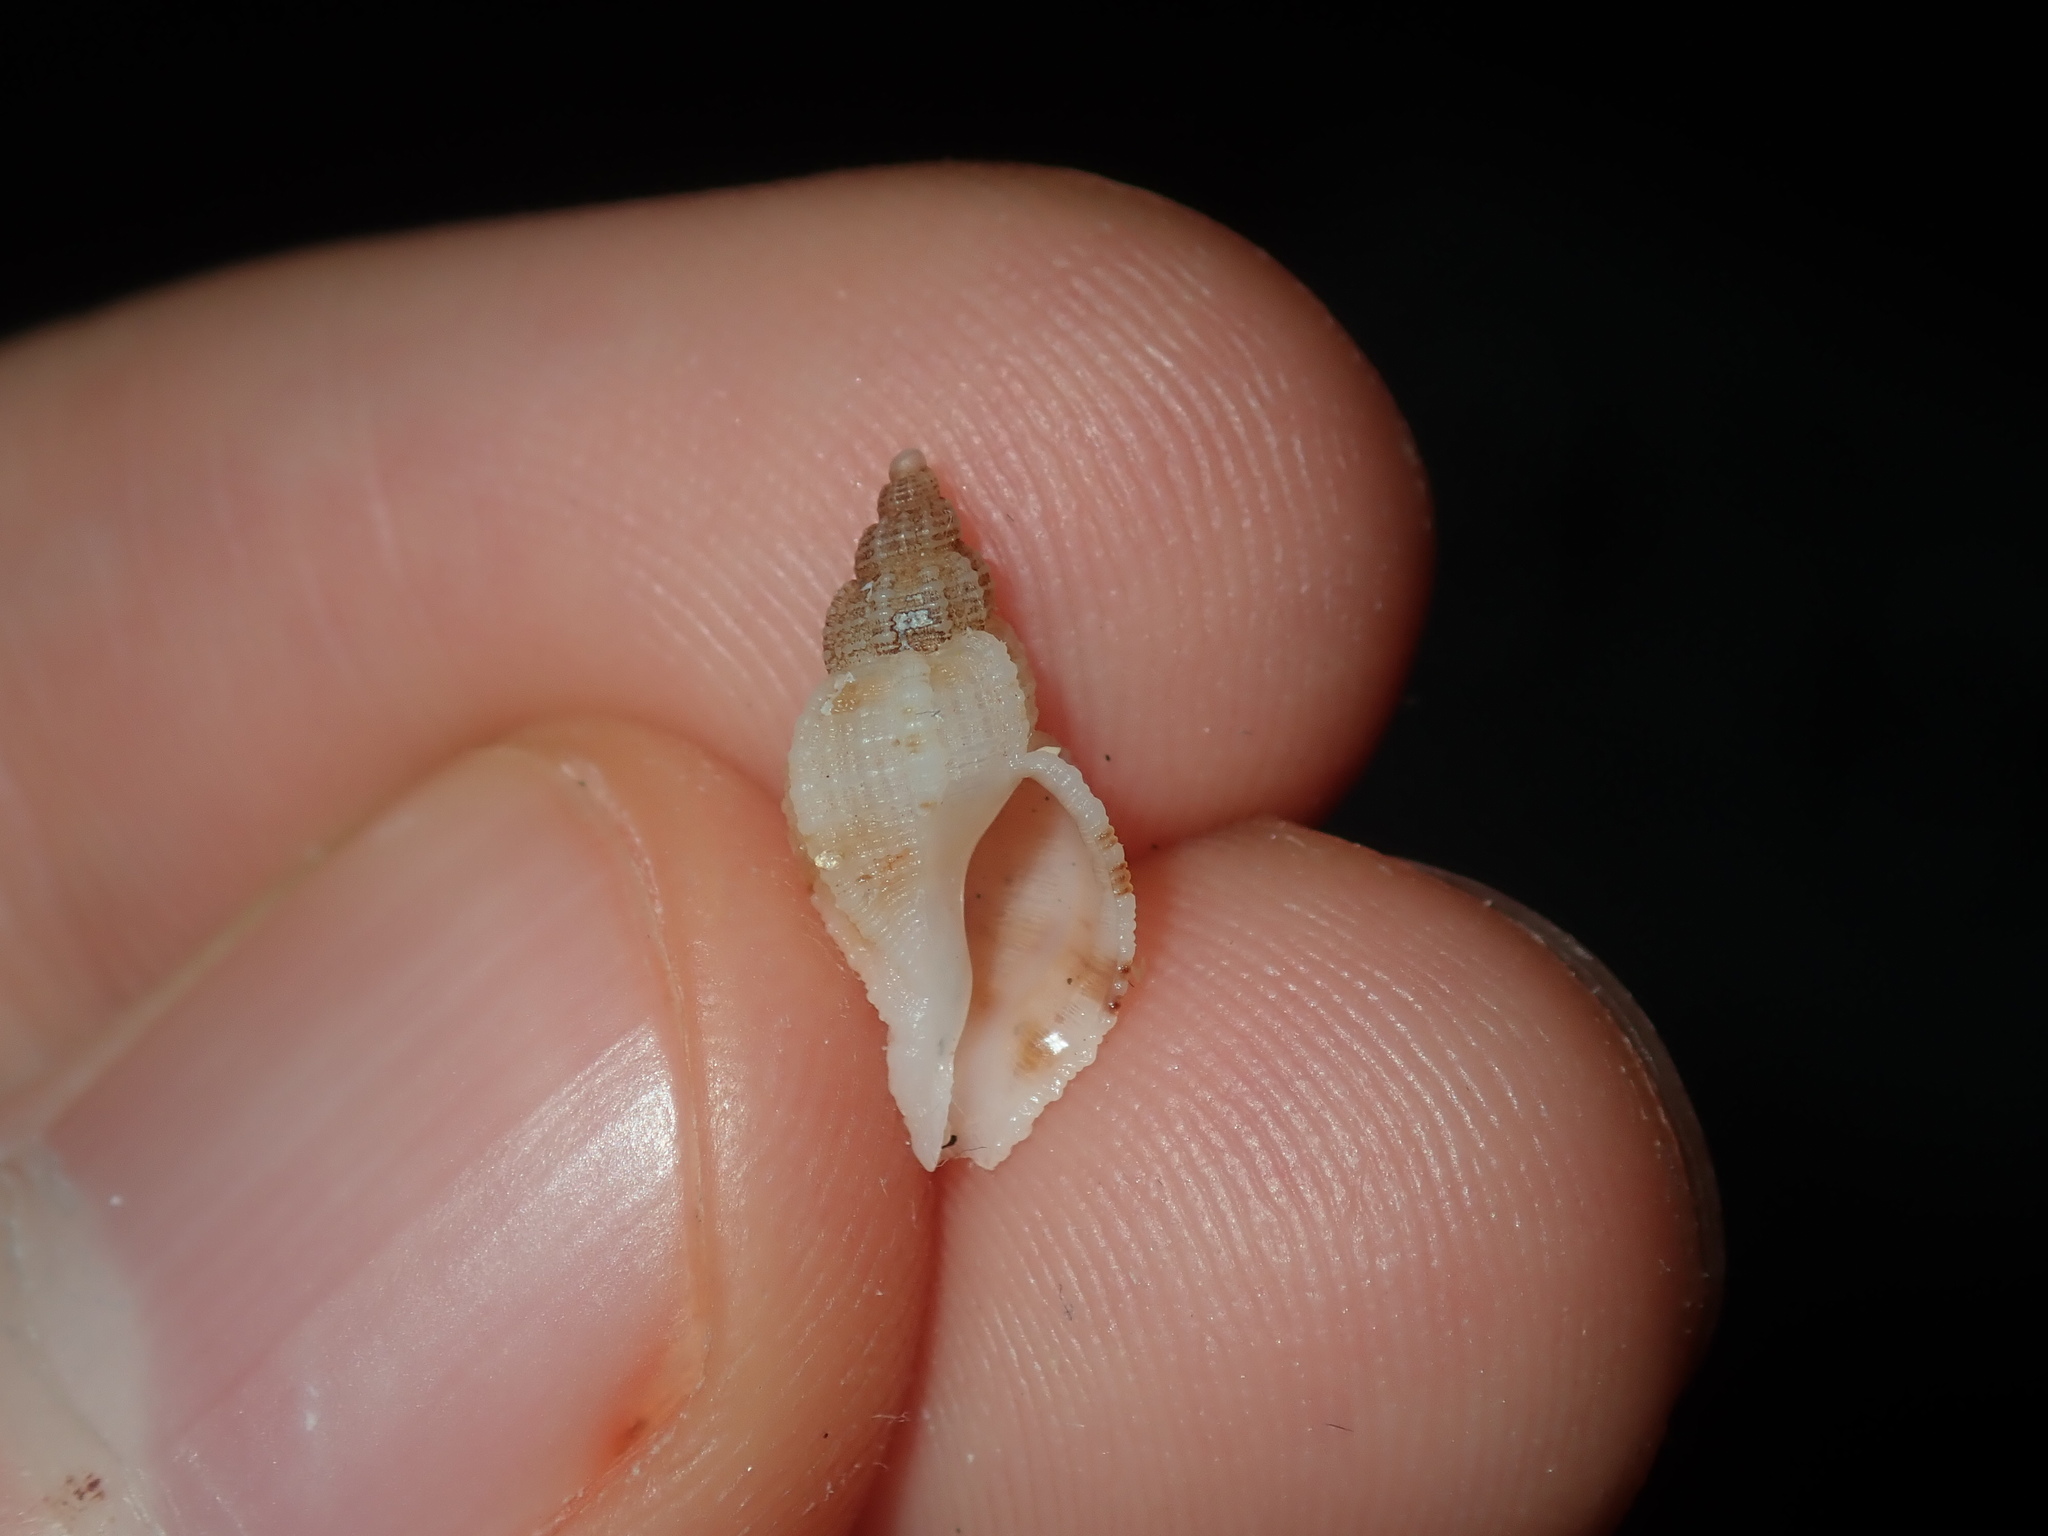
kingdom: Animalia
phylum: Mollusca
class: Gastropoda
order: Neogastropoda
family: Muricidae
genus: Phyllocoma
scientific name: Phyllocoma speciosa
